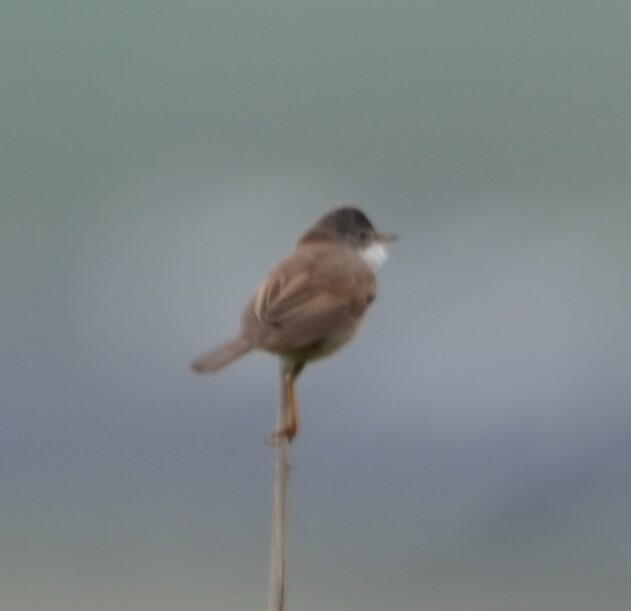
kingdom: Animalia
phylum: Chordata
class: Aves
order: Passeriformes
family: Sylviidae
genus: Sylvia
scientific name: Sylvia communis
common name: Common whitethroat
